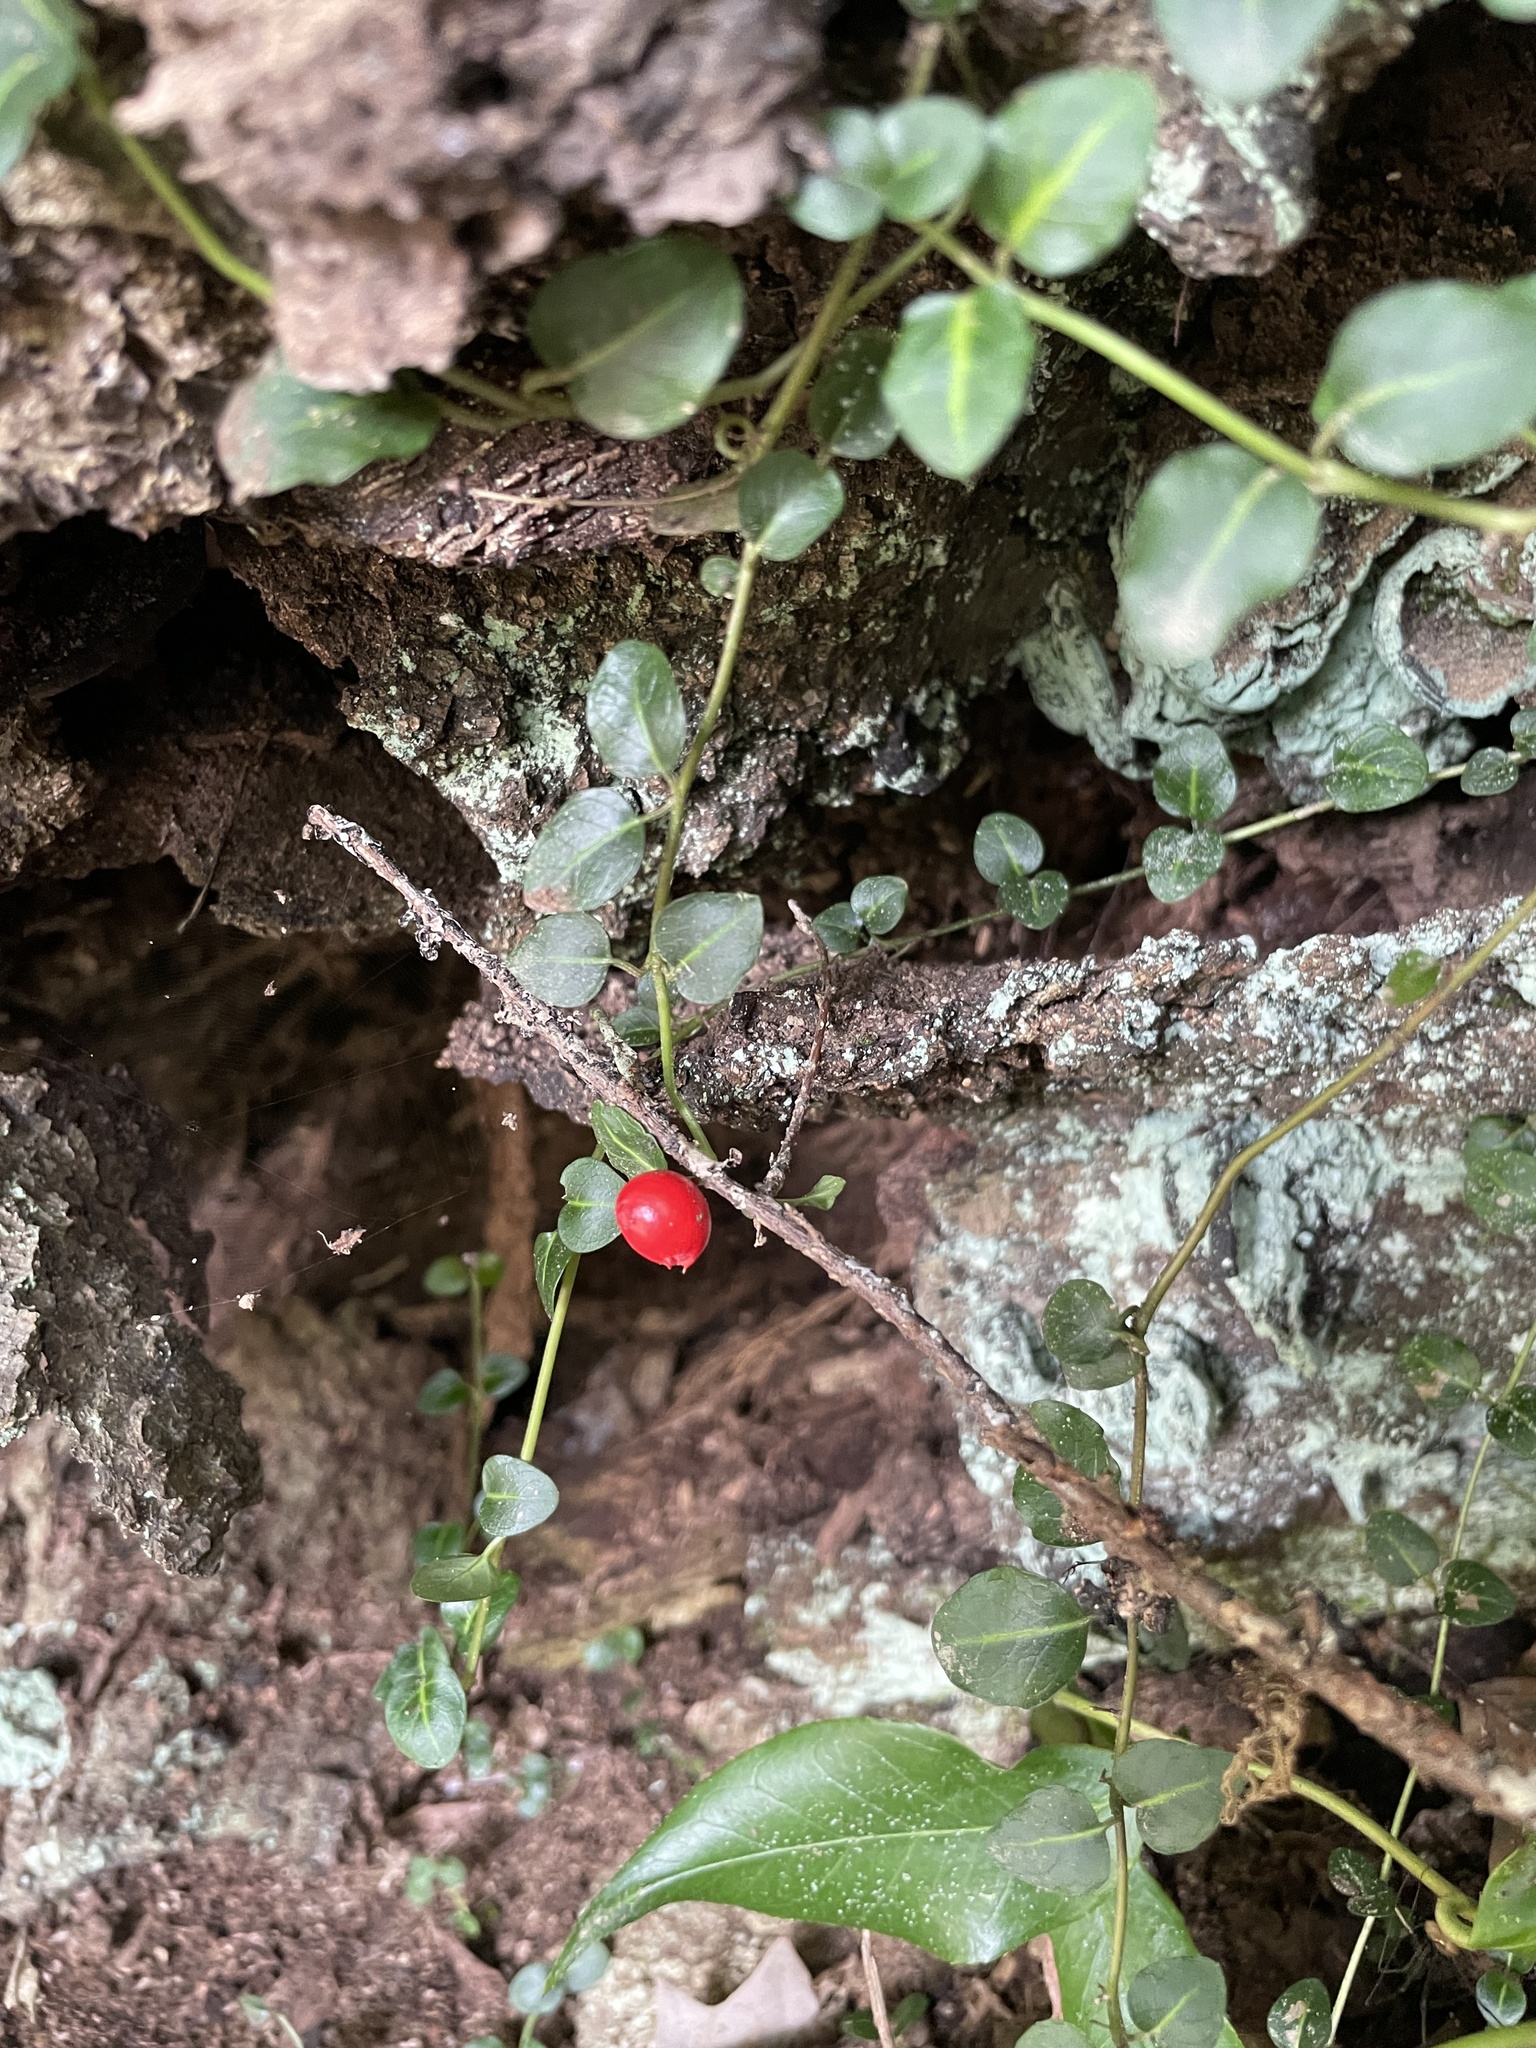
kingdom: Plantae
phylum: Tracheophyta
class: Magnoliopsida
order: Gentianales
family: Rubiaceae
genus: Mitchella
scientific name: Mitchella repens
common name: Partridge-berry
